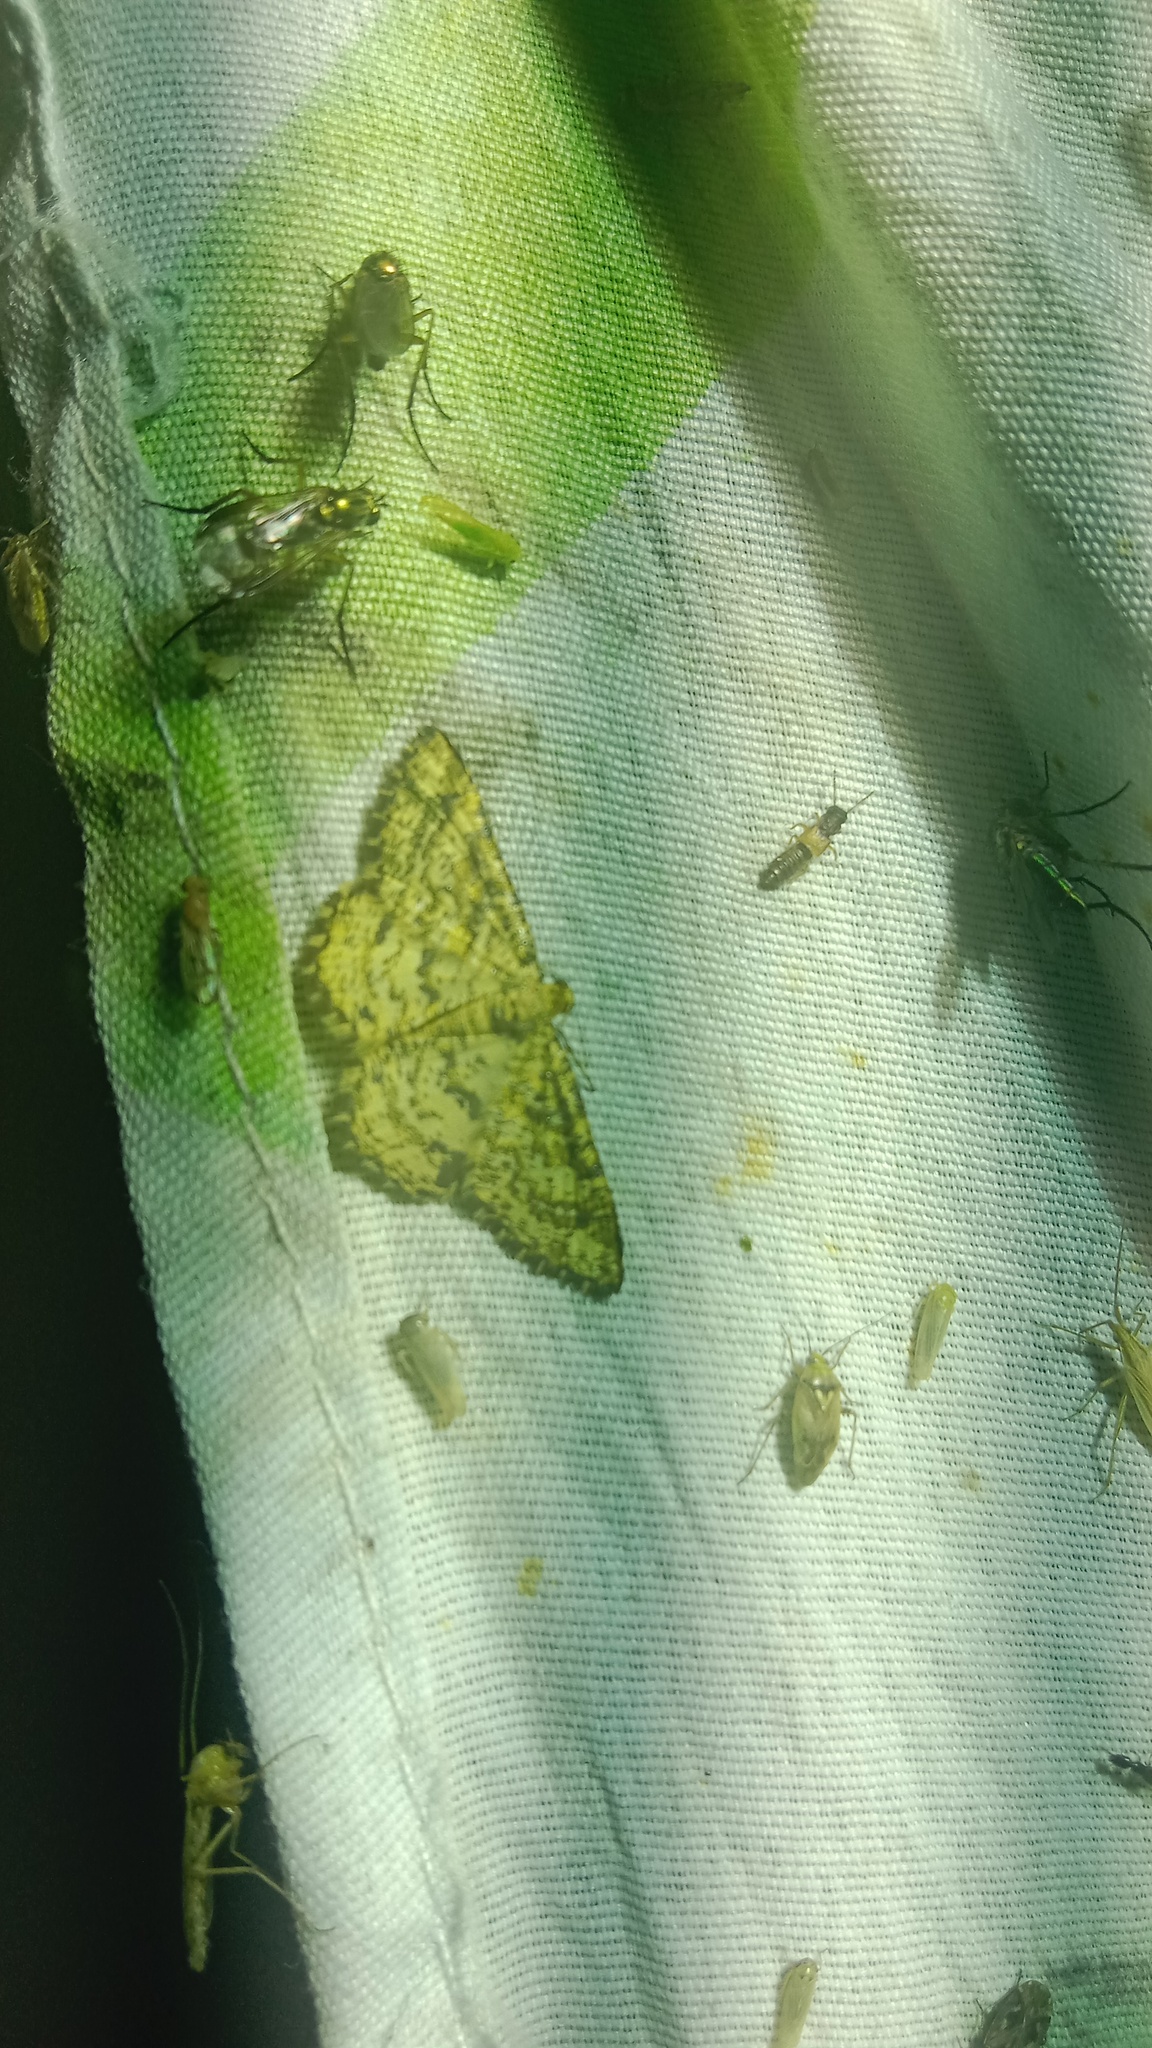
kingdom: Animalia
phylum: Arthropoda
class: Insecta
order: Lepidoptera
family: Geometridae
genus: Heliomata
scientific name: Heliomata glarearia
